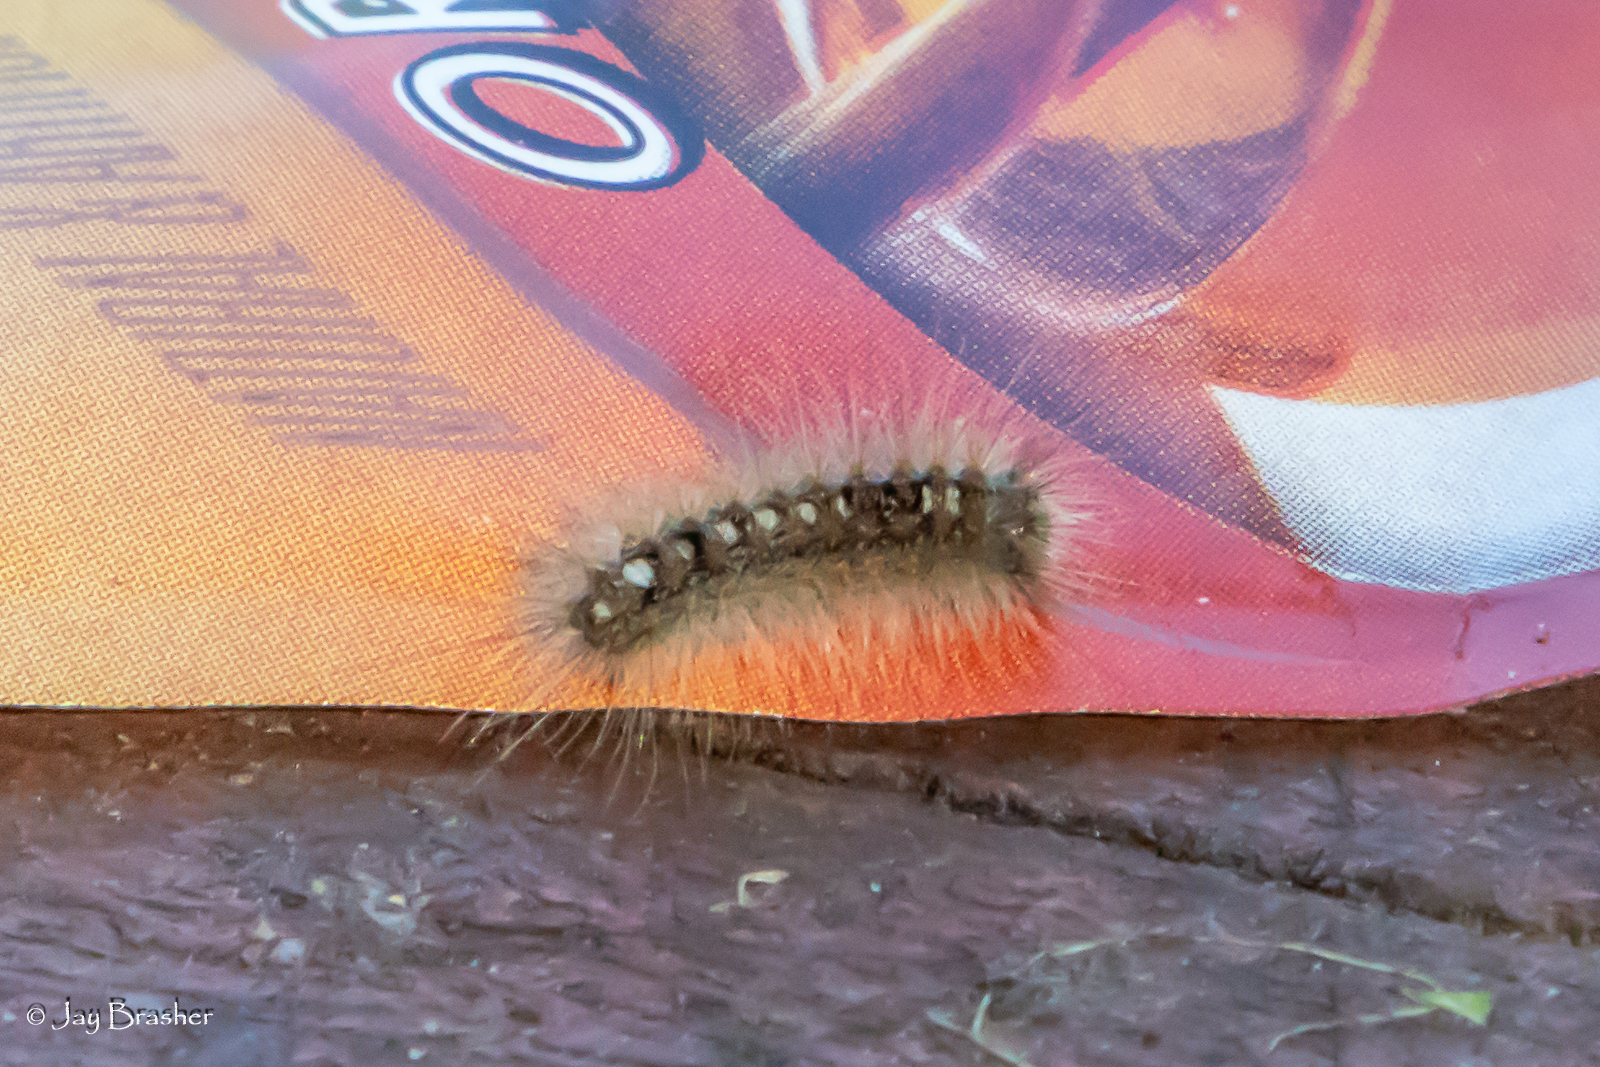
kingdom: Animalia
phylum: Arthropoda
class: Insecta
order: Lepidoptera
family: Erebidae
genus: Leucoma
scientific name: Leucoma salicis
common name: White satin moth
